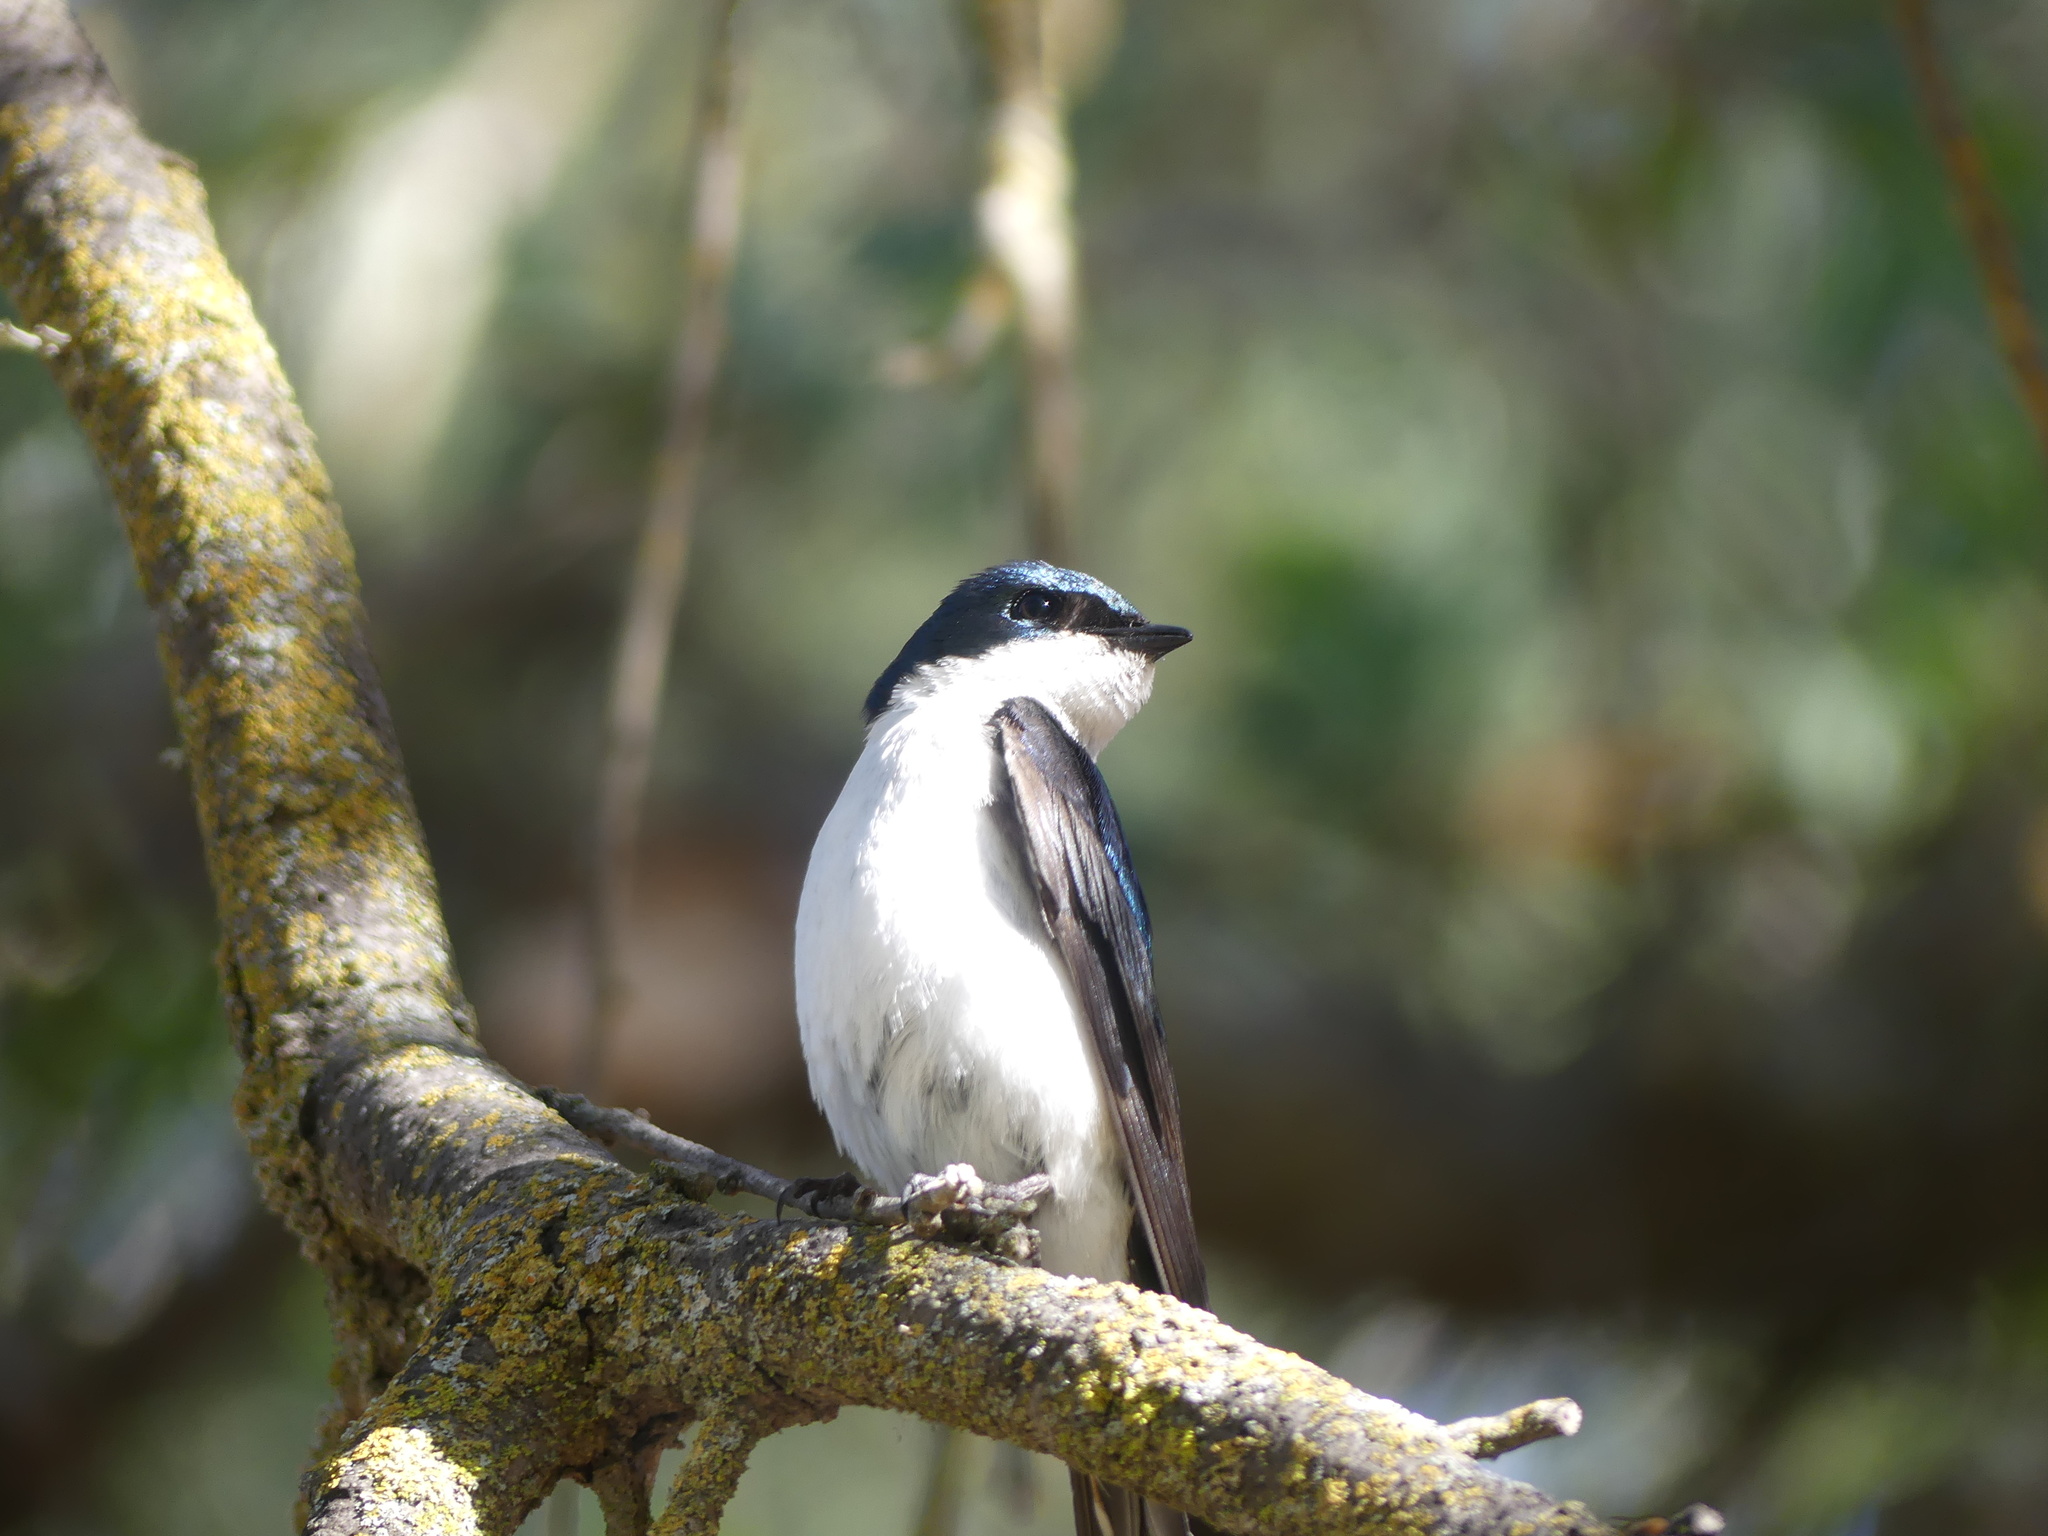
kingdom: Animalia
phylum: Chordata
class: Aves
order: Passeriformes
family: Hirundinidae
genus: Tachycineta
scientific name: Tachycineta bicolor
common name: Tree swallow
